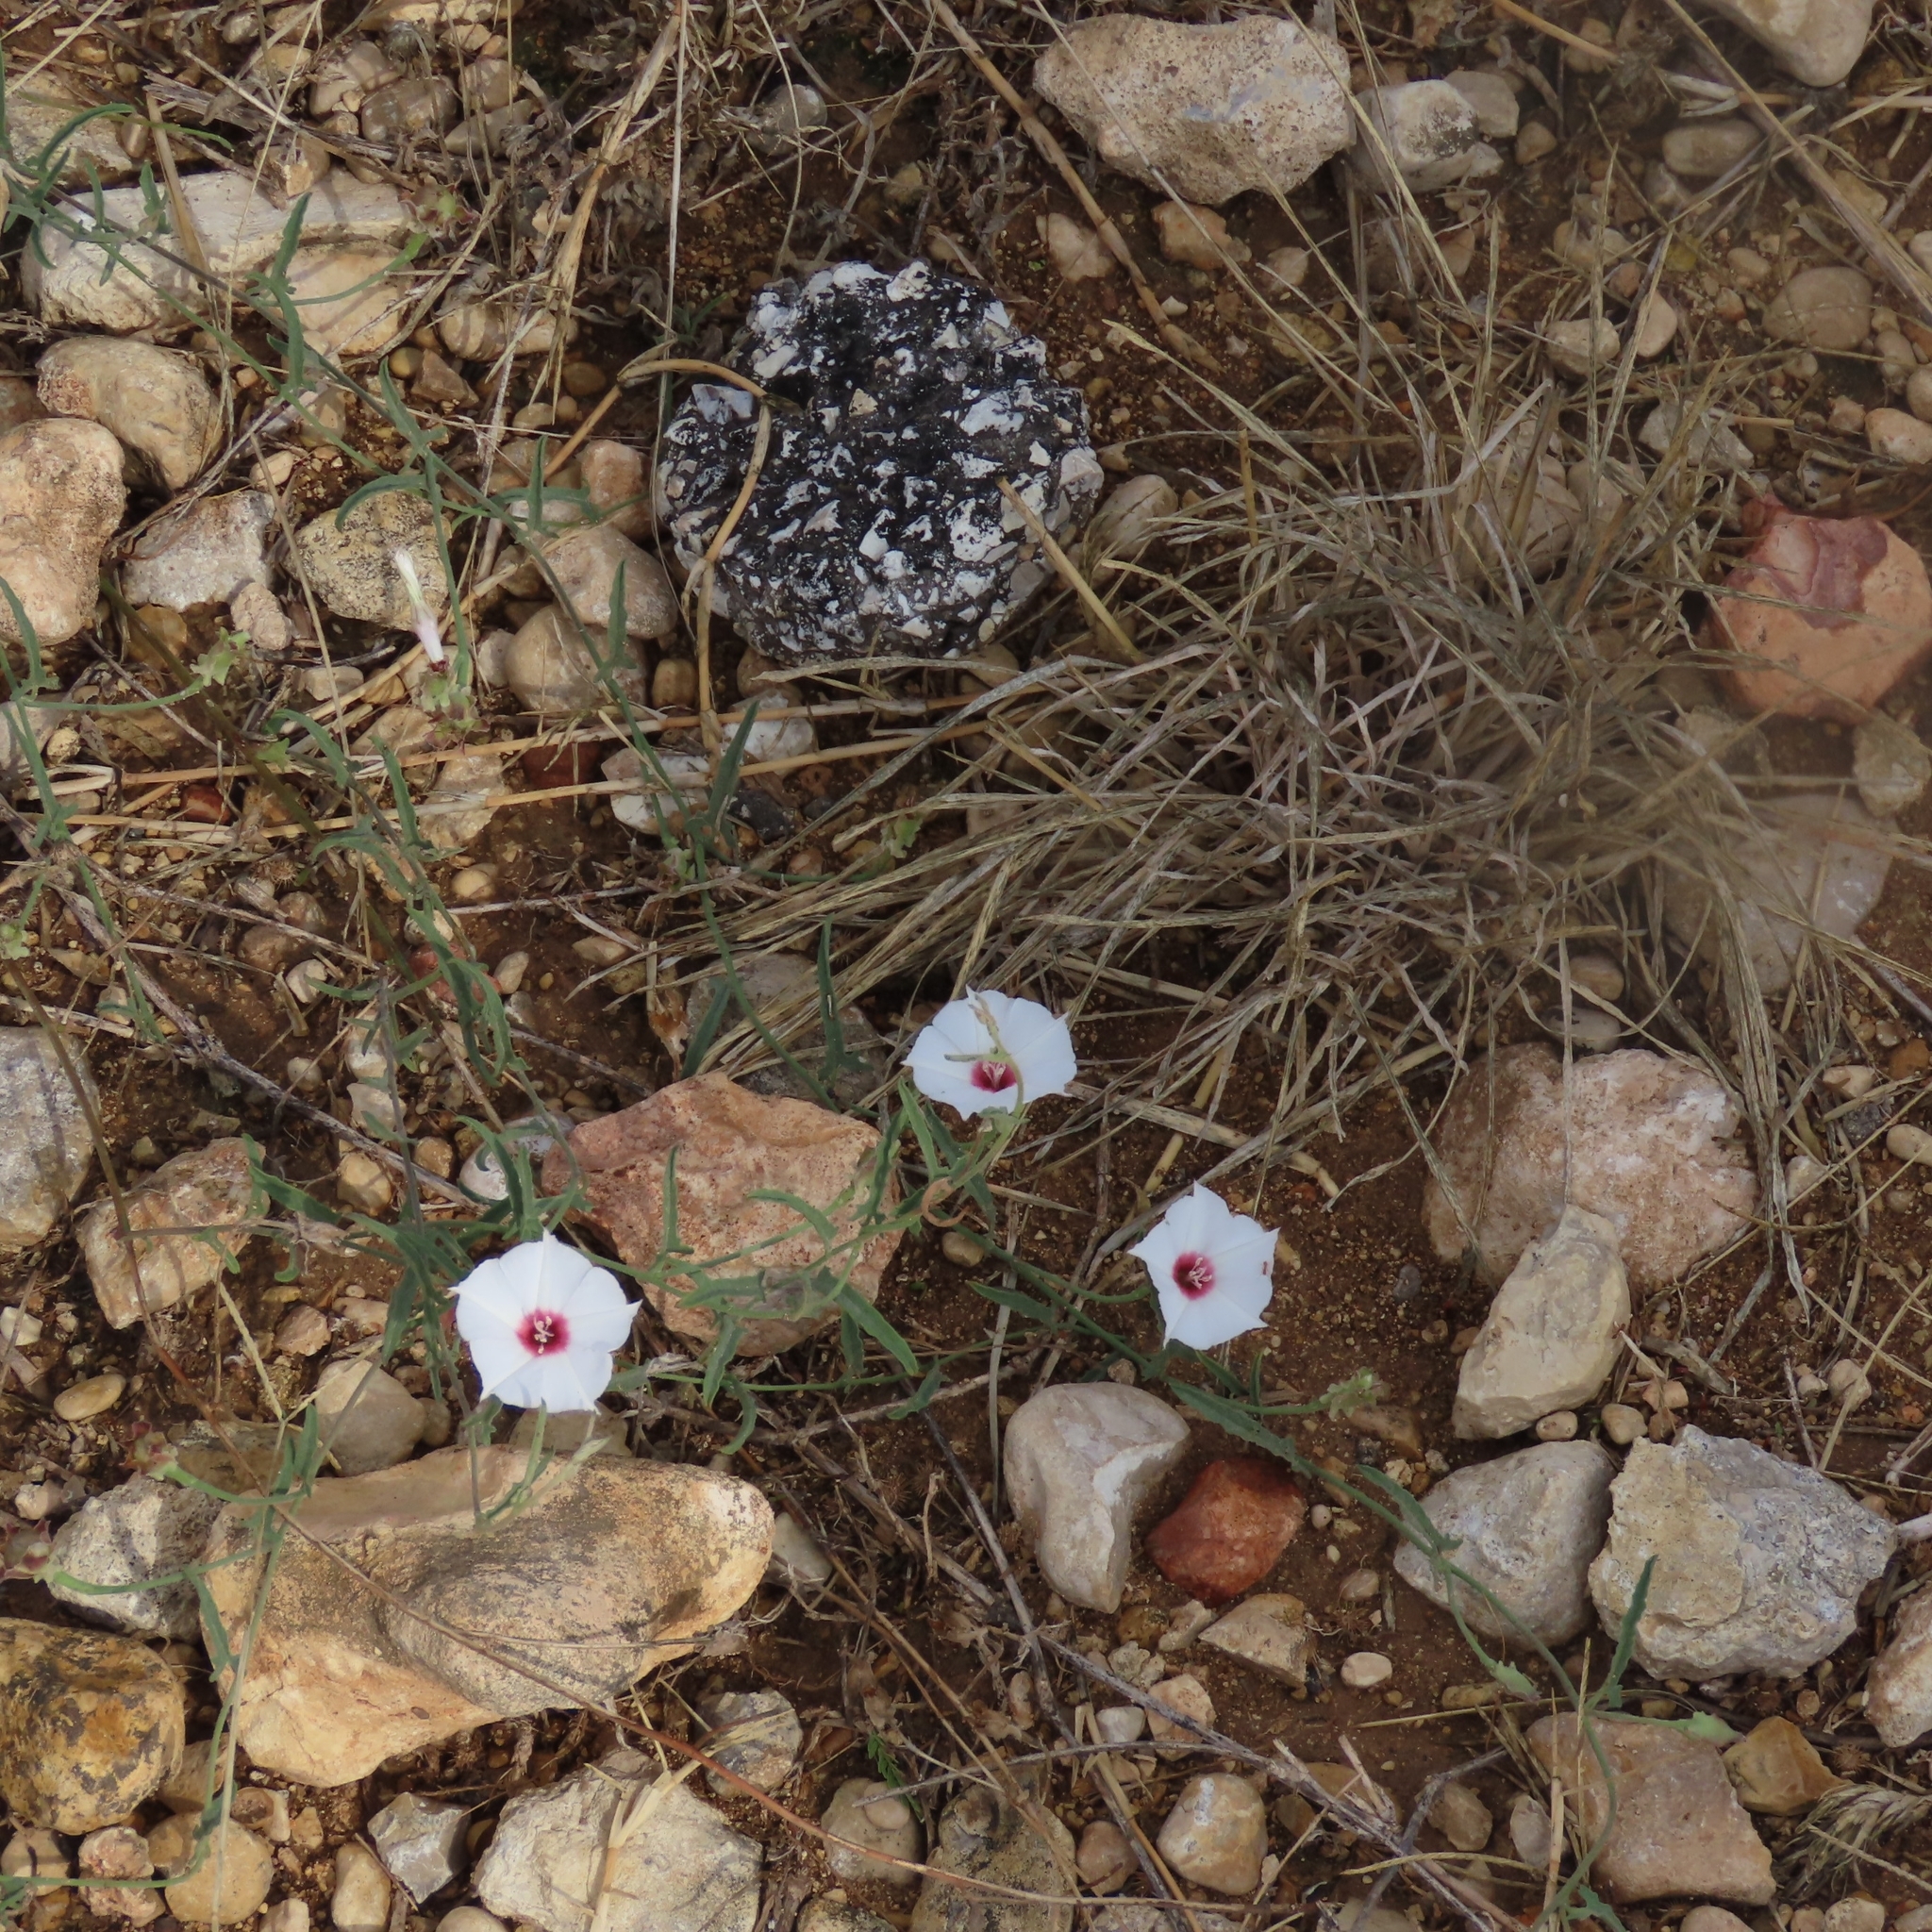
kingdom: Plantae
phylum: Tracheophyta
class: Magnoliopsida
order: Solanales
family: Convolvulaceae
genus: Convolvulus
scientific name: Convolvulus equitans
